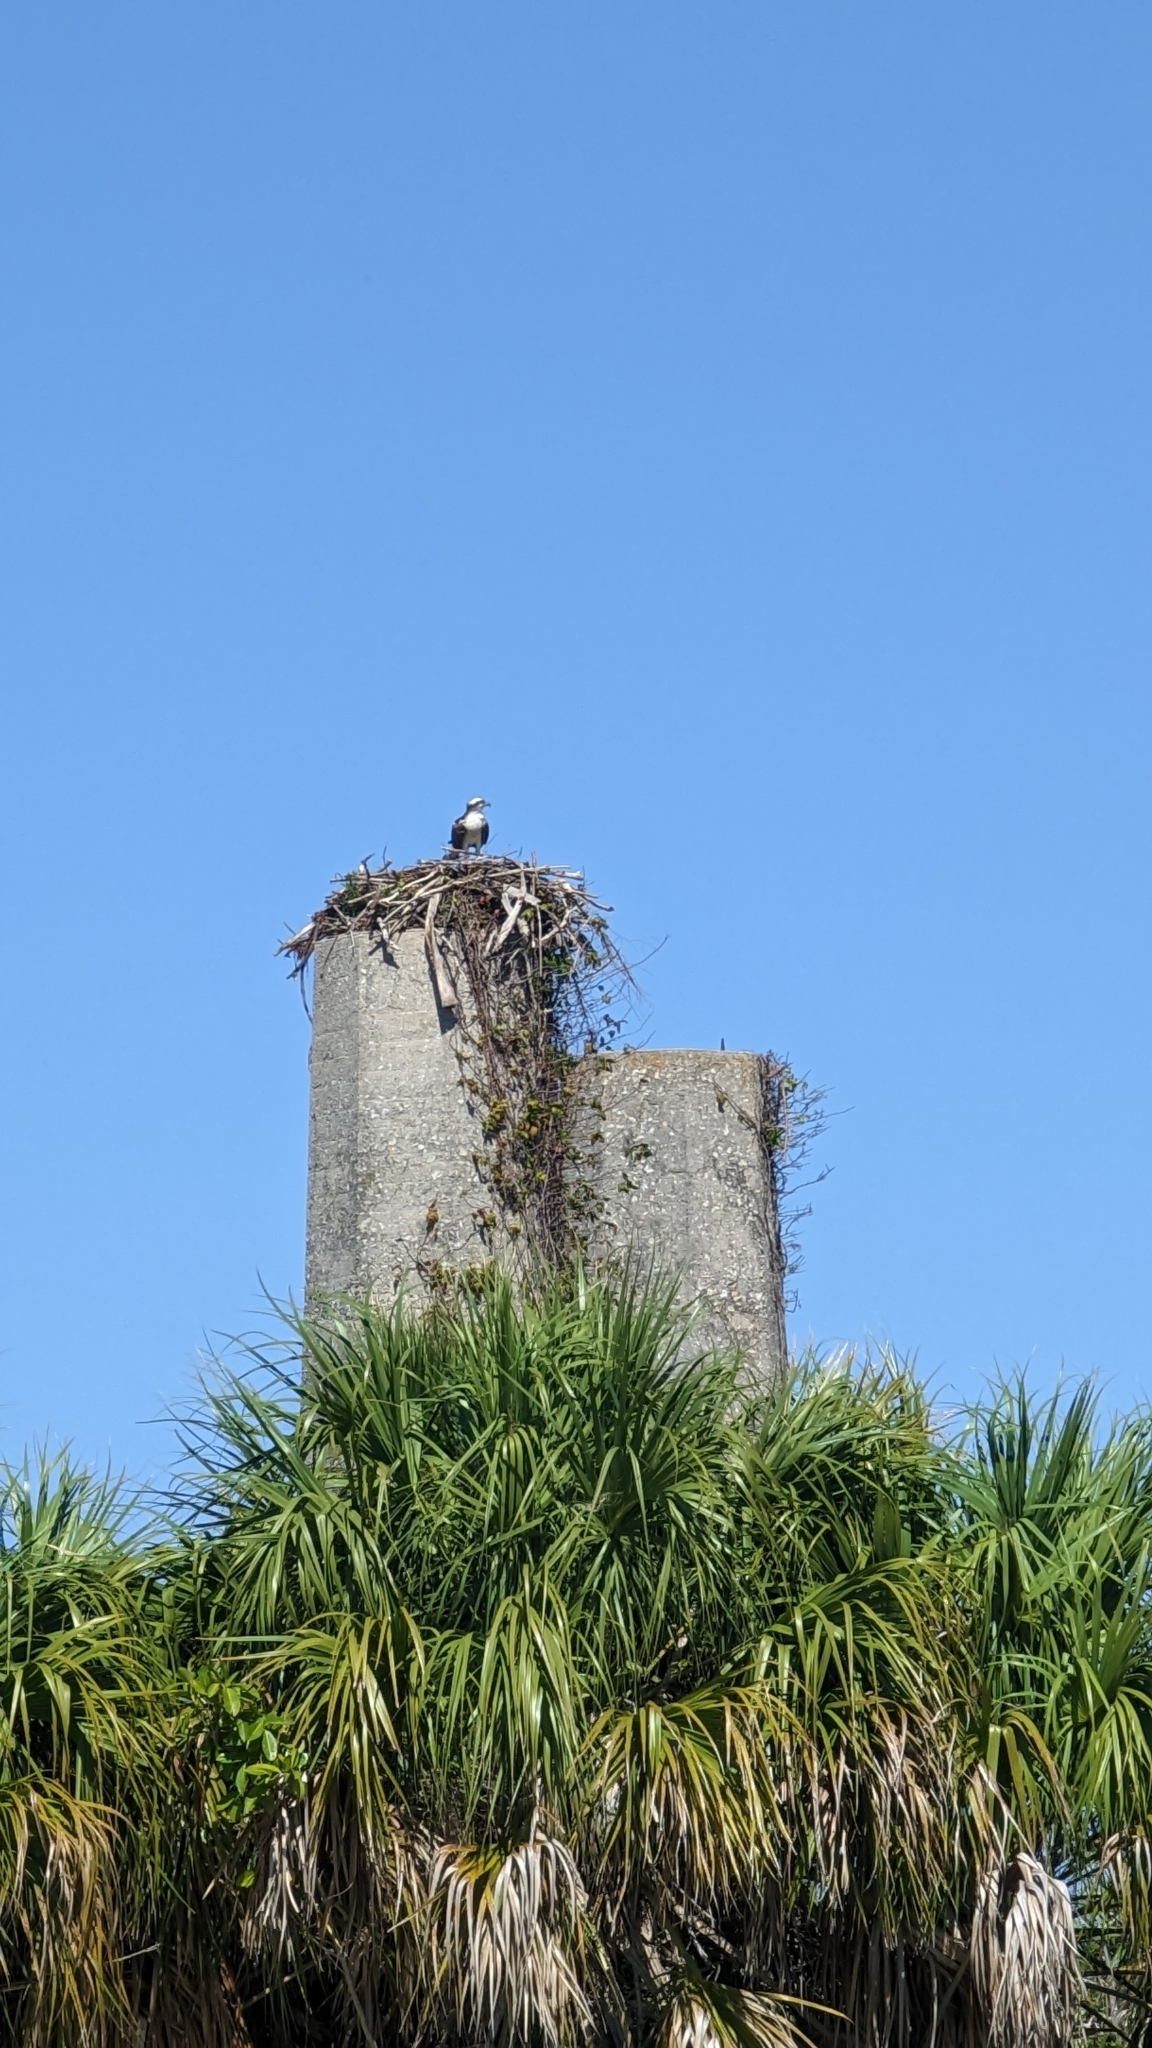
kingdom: Animalia
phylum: Chordata
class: Aves
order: Accipitriformes
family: Pandionidae
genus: Pandion
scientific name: Pandion haliaetus
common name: Osprey
